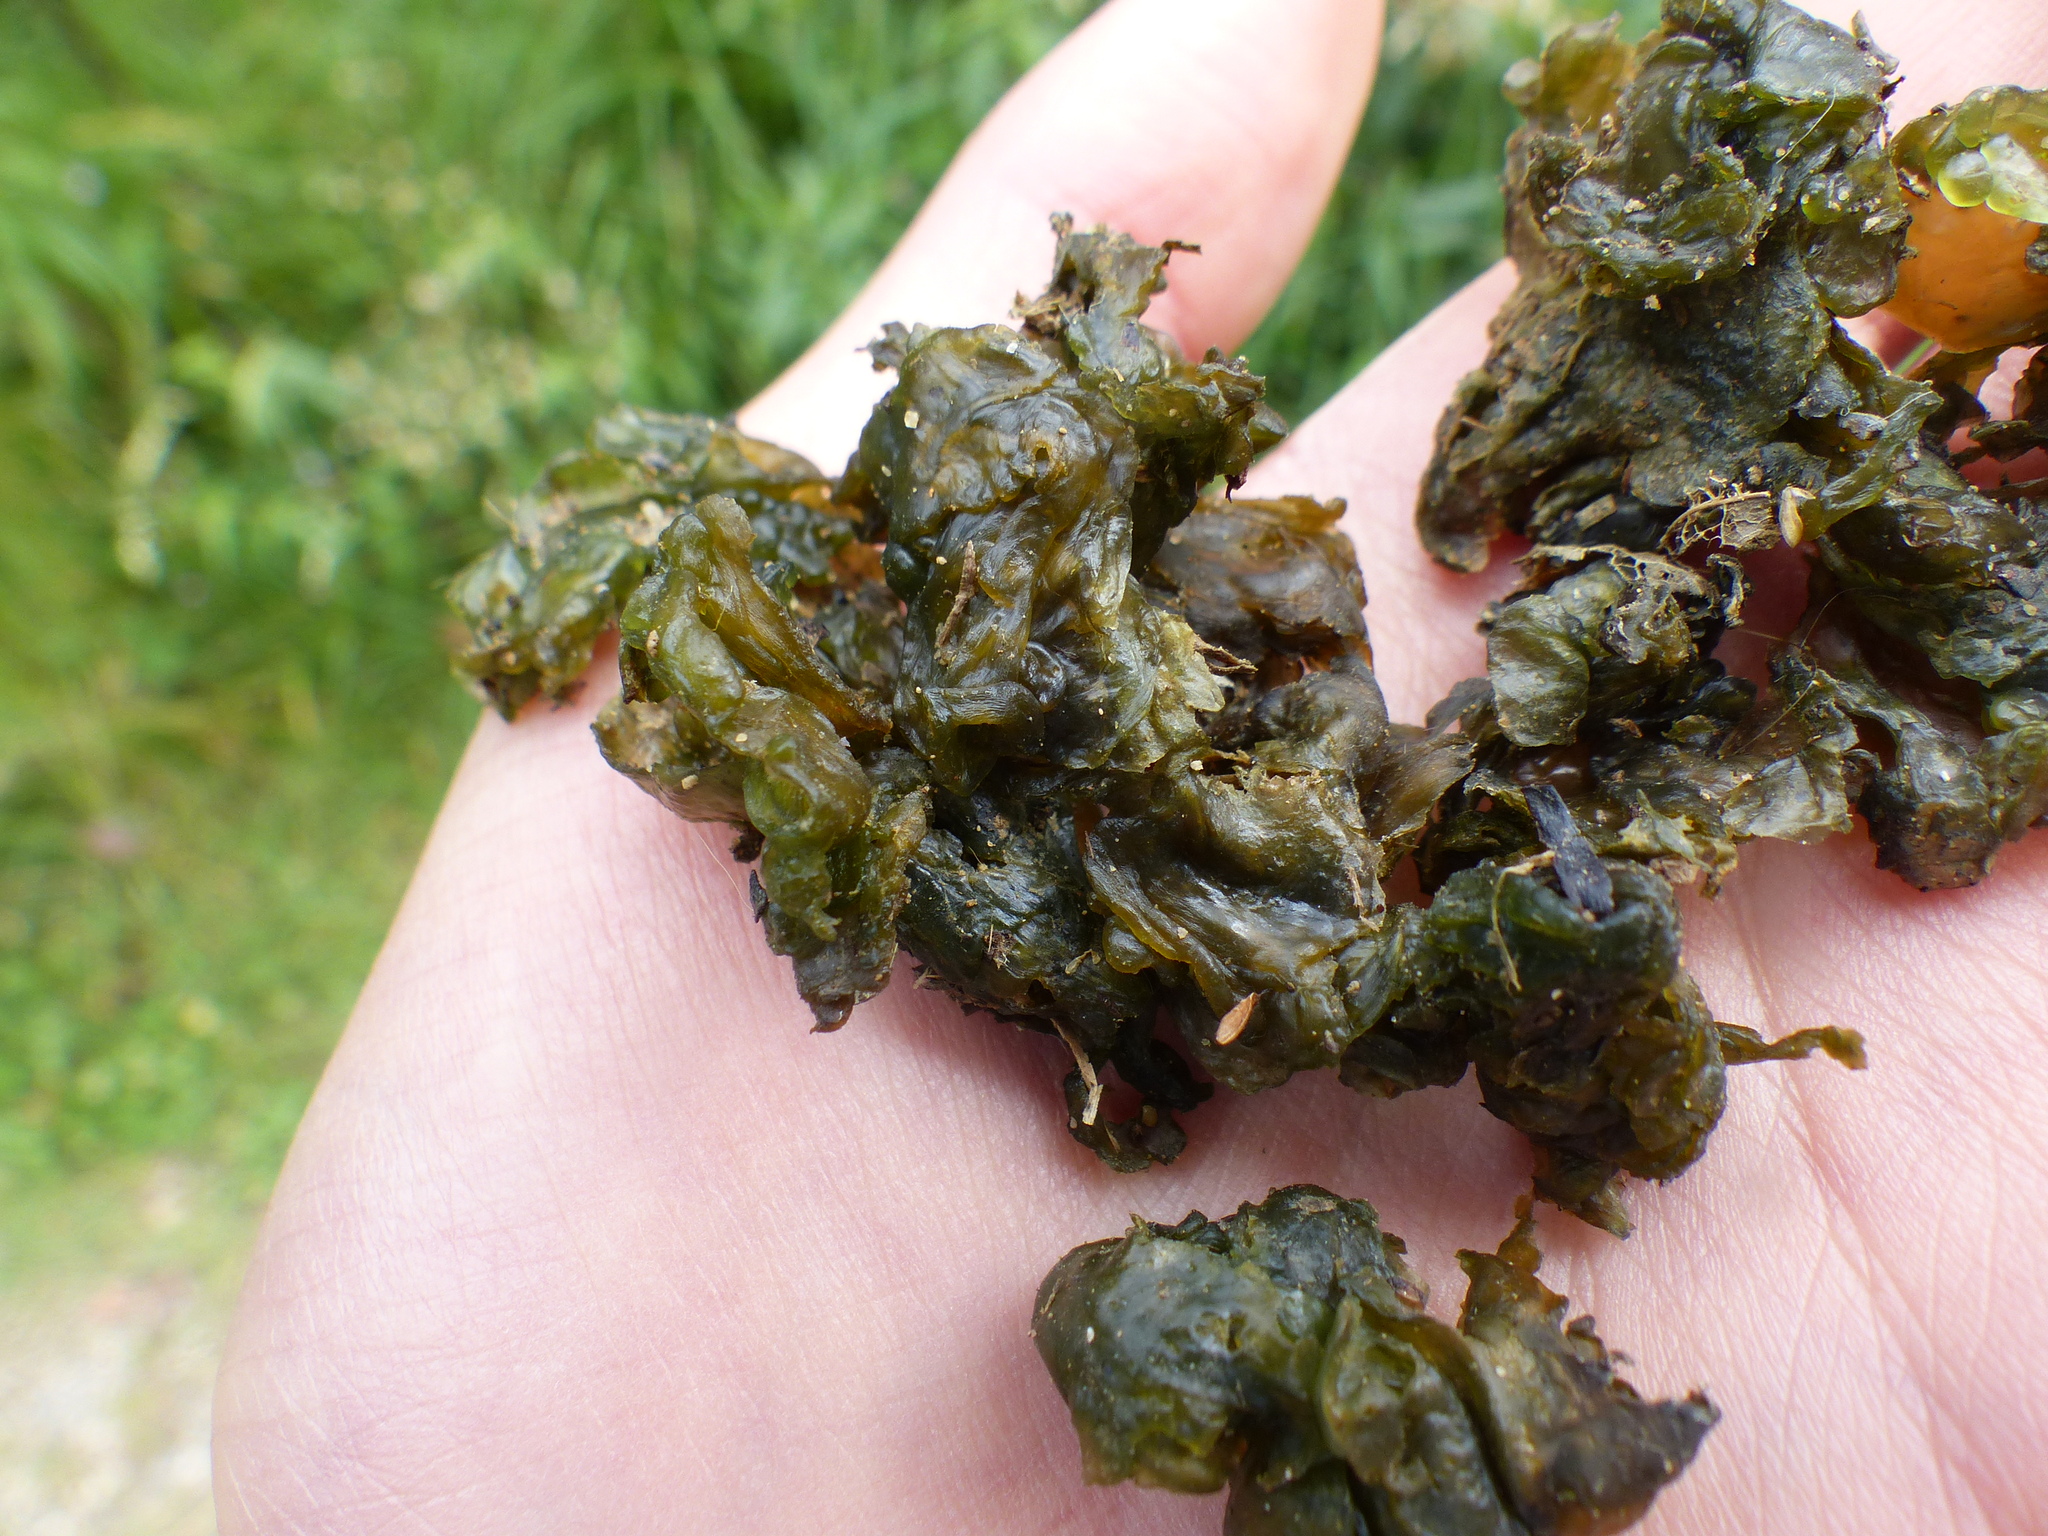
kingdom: Bacteria
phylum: Cyanobacteria
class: Cyanobacteriia
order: Cyanobacteriales
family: Nostocaceae
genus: Nostoc
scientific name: Nostoc commune
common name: Star jelly
